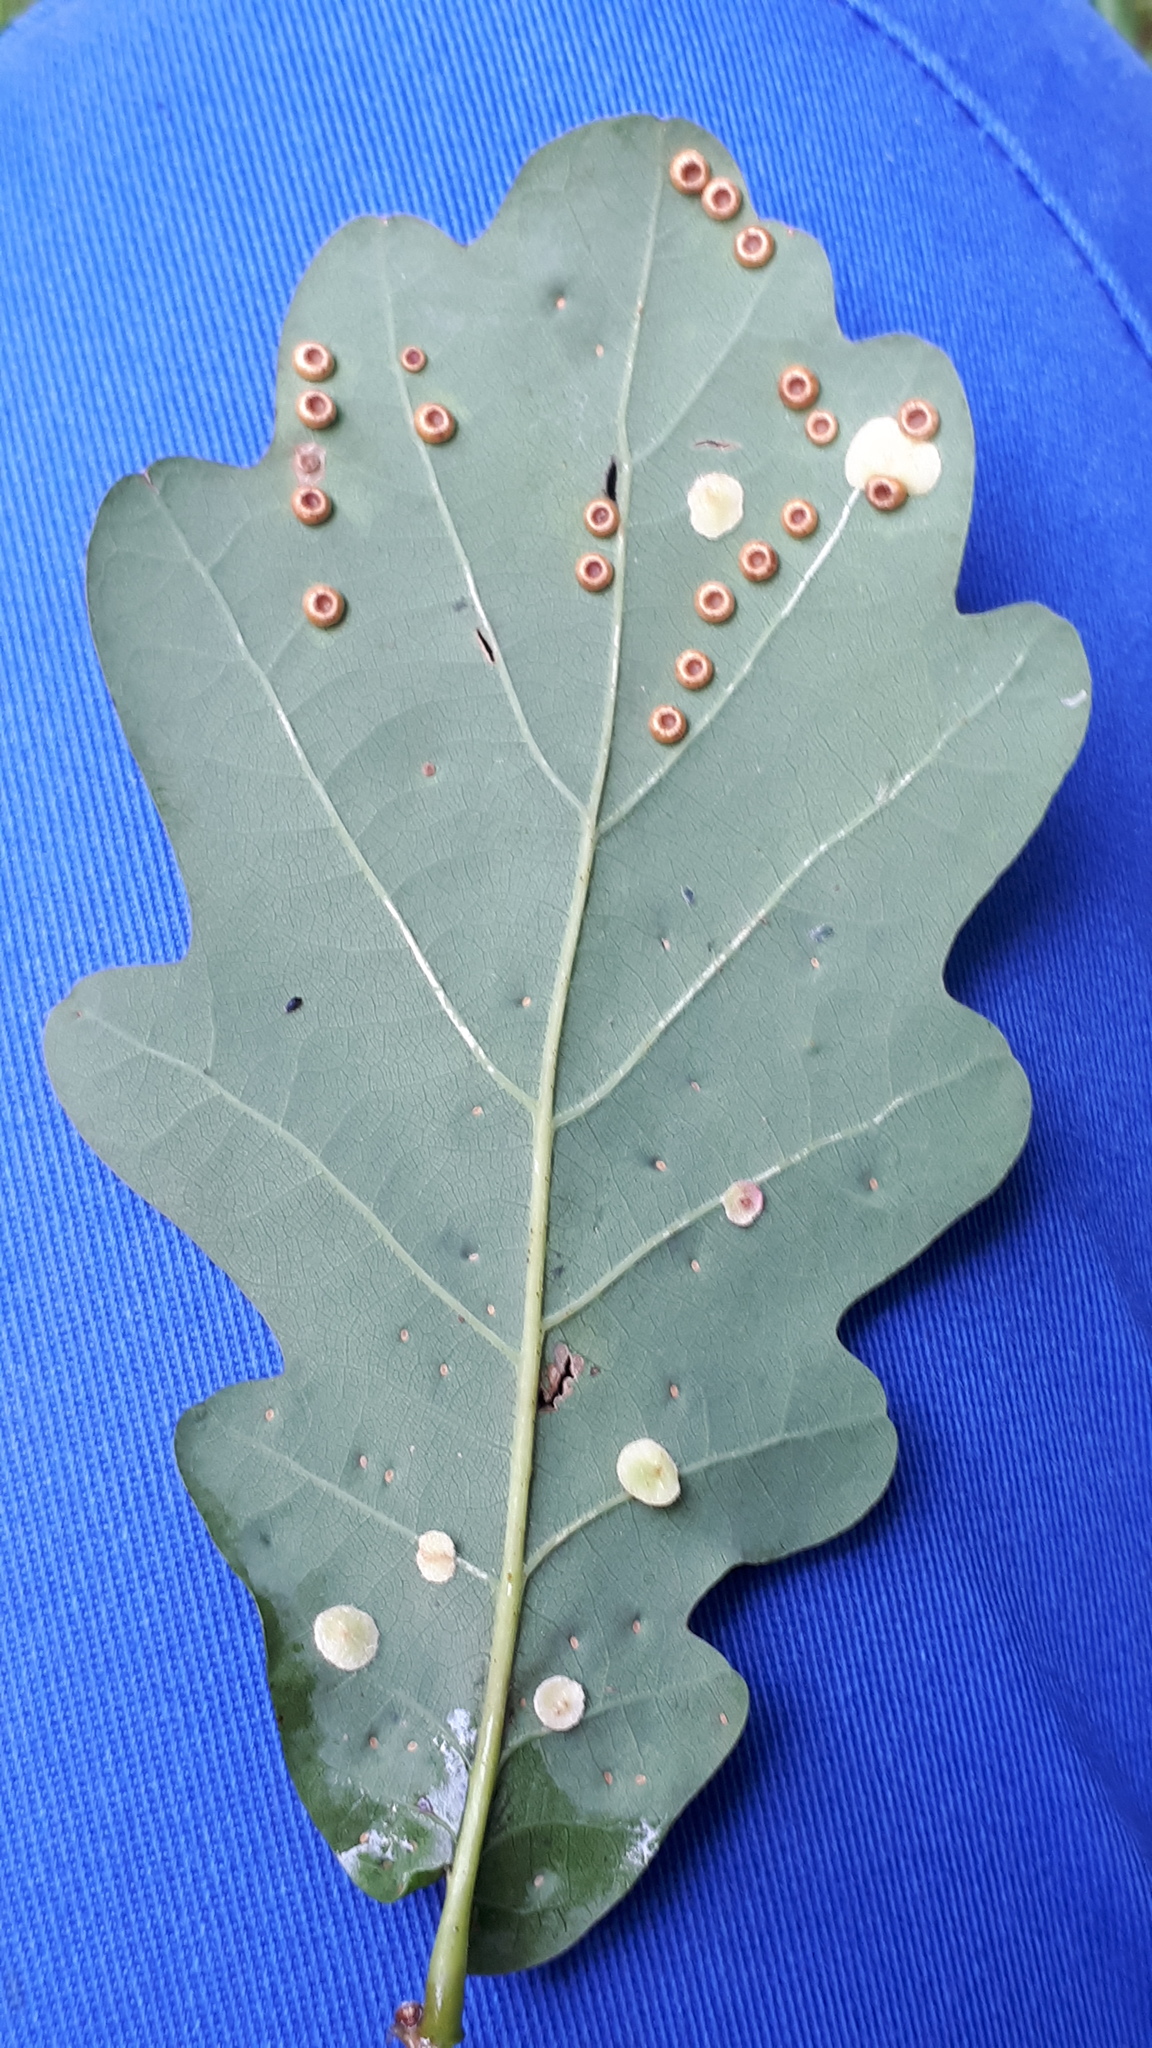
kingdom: Animalia
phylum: Arthropoda
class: Insecta
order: Hymenoptera
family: Cynipidae
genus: Neuroterus
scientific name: Neuroterus numismalis
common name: Silk-button spangle gall
